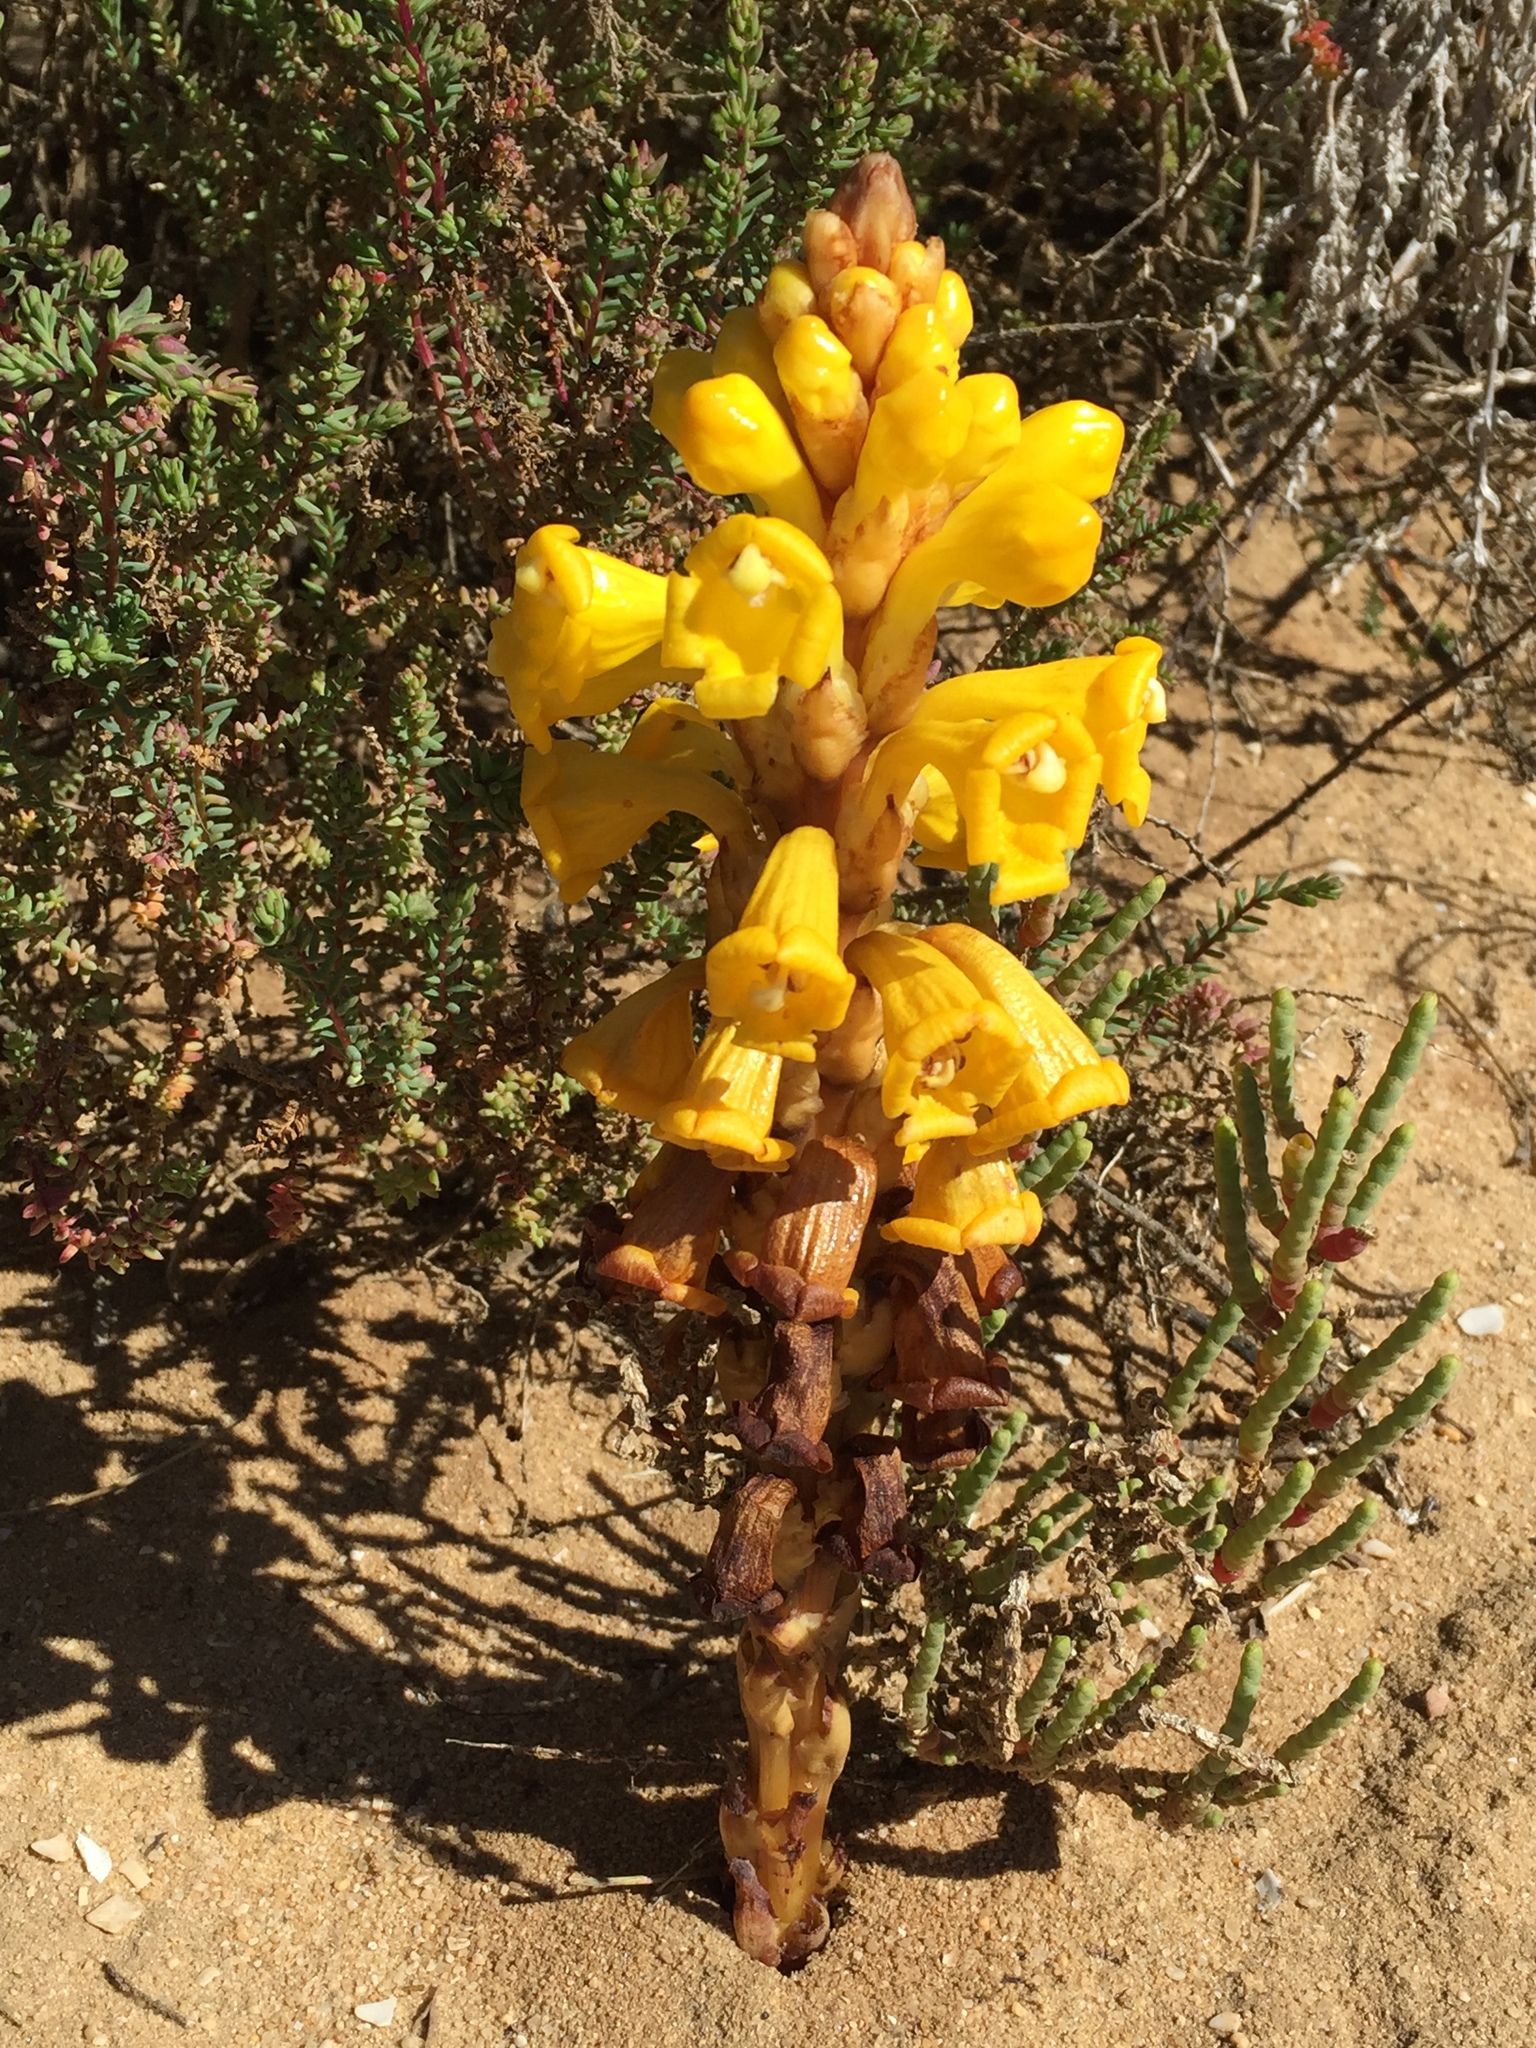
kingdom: Plantae
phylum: Tracheophyta
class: Magnoliopsida
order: Lamiales
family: Orobanchaceae
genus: Cistanche
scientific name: Cistanche phelypaea
